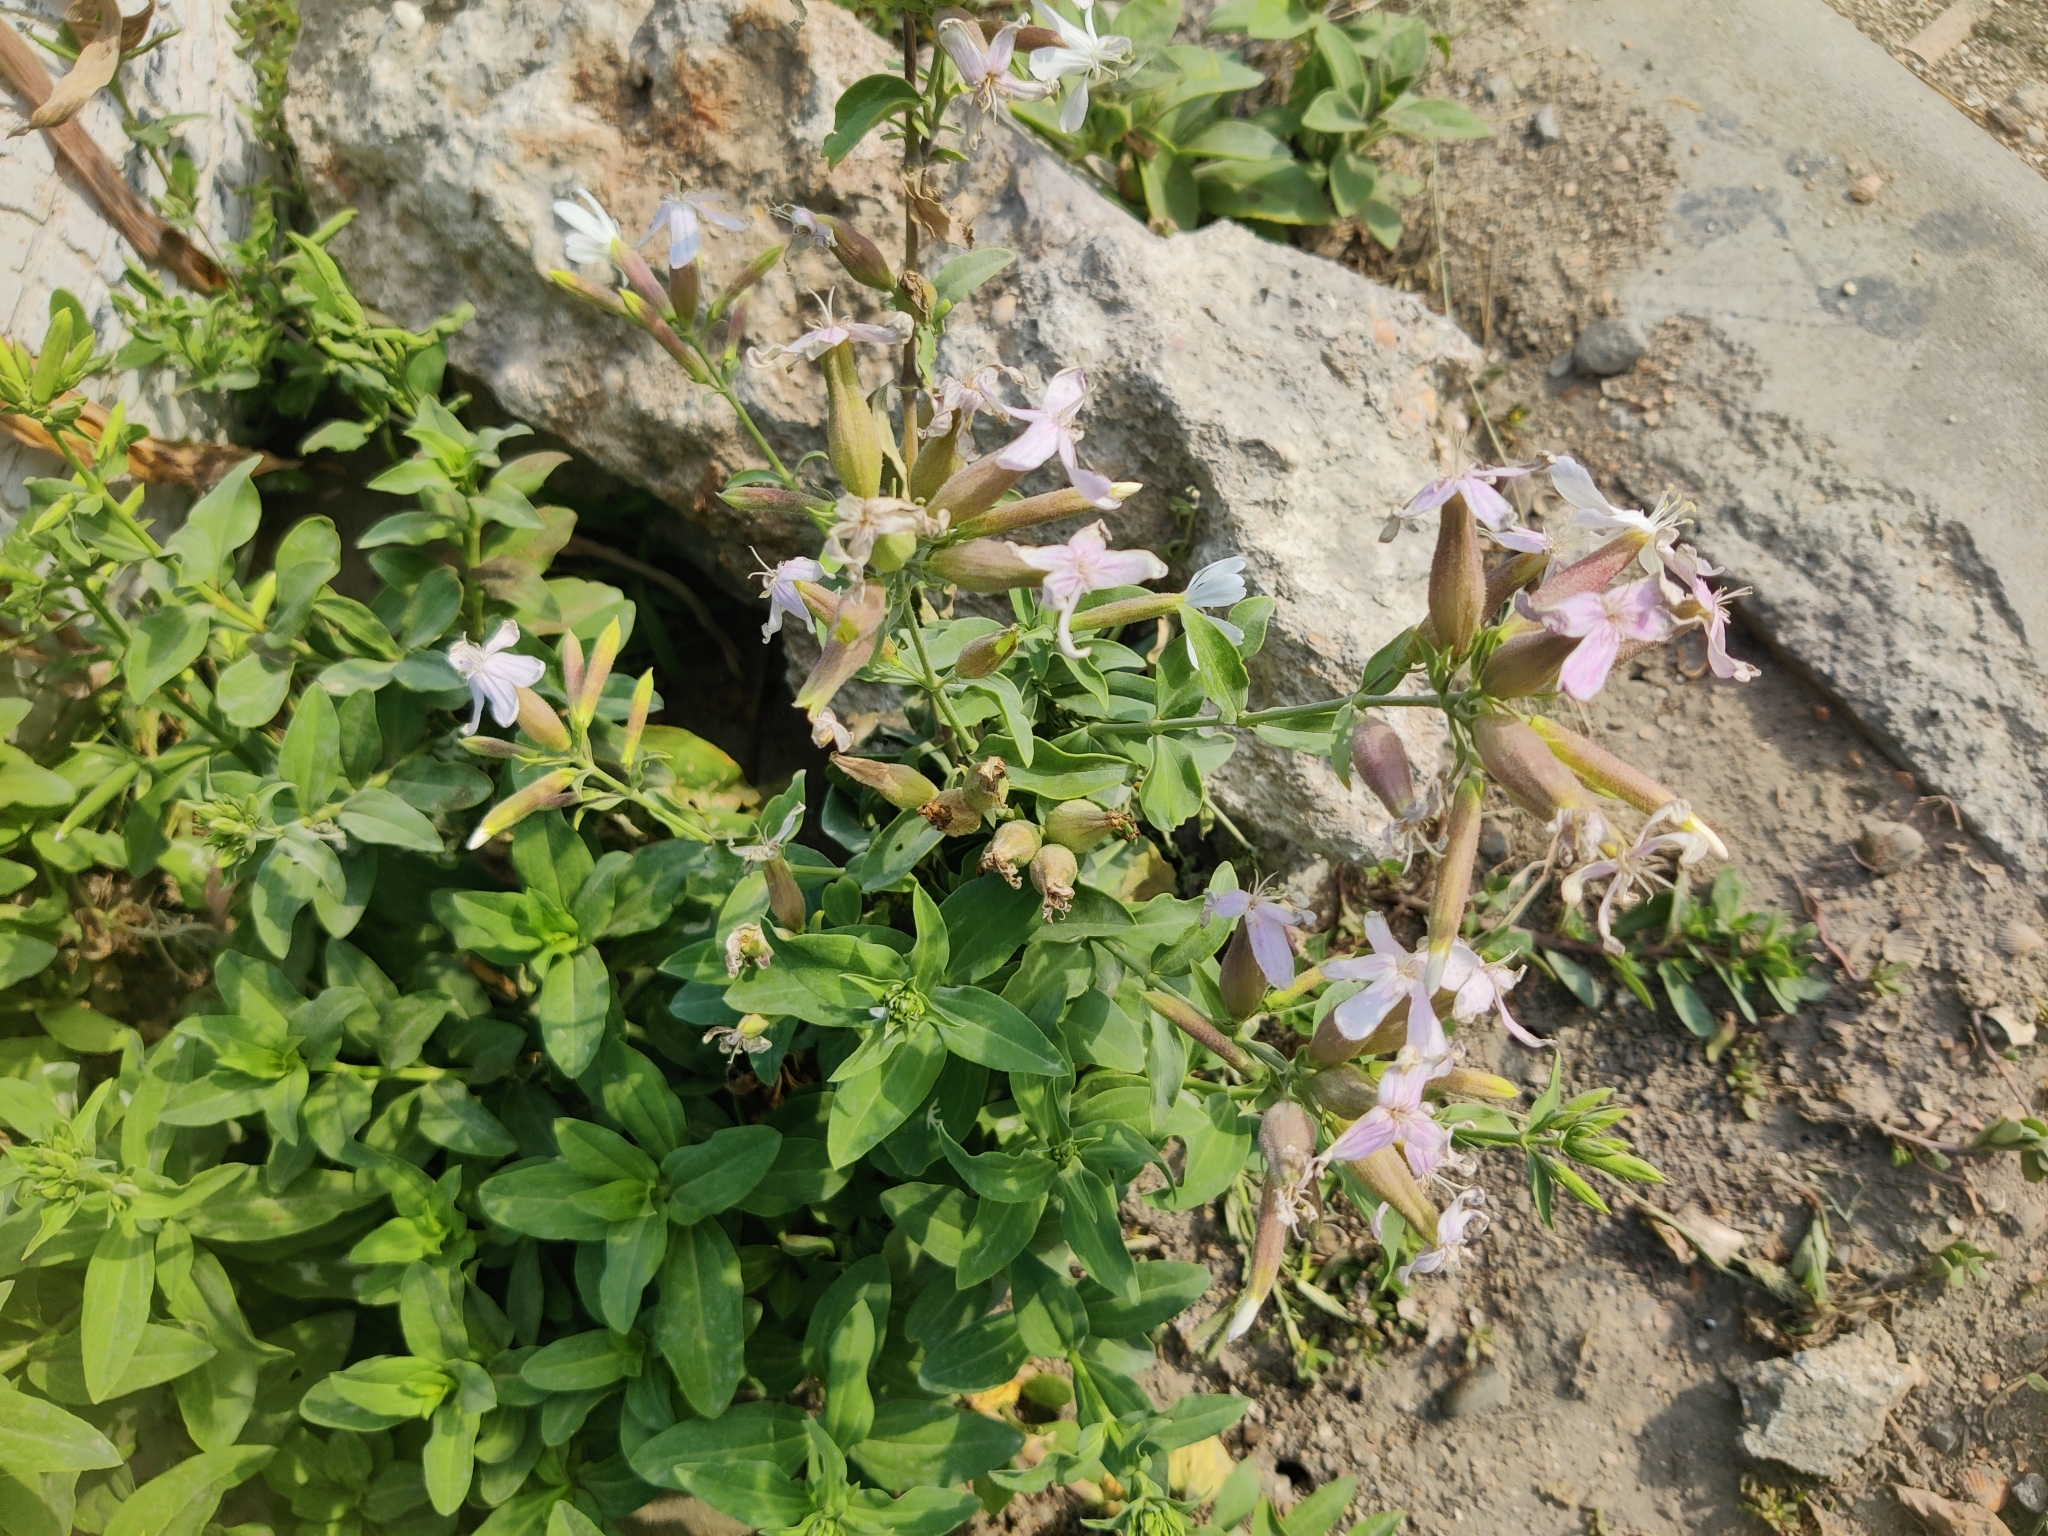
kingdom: Plantae
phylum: Tracheophyta
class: Magnoliopsida
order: Caryophyllales
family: Caryophyllaceae
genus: Saponaria
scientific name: Saponaria officinalis
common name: Soapwort
